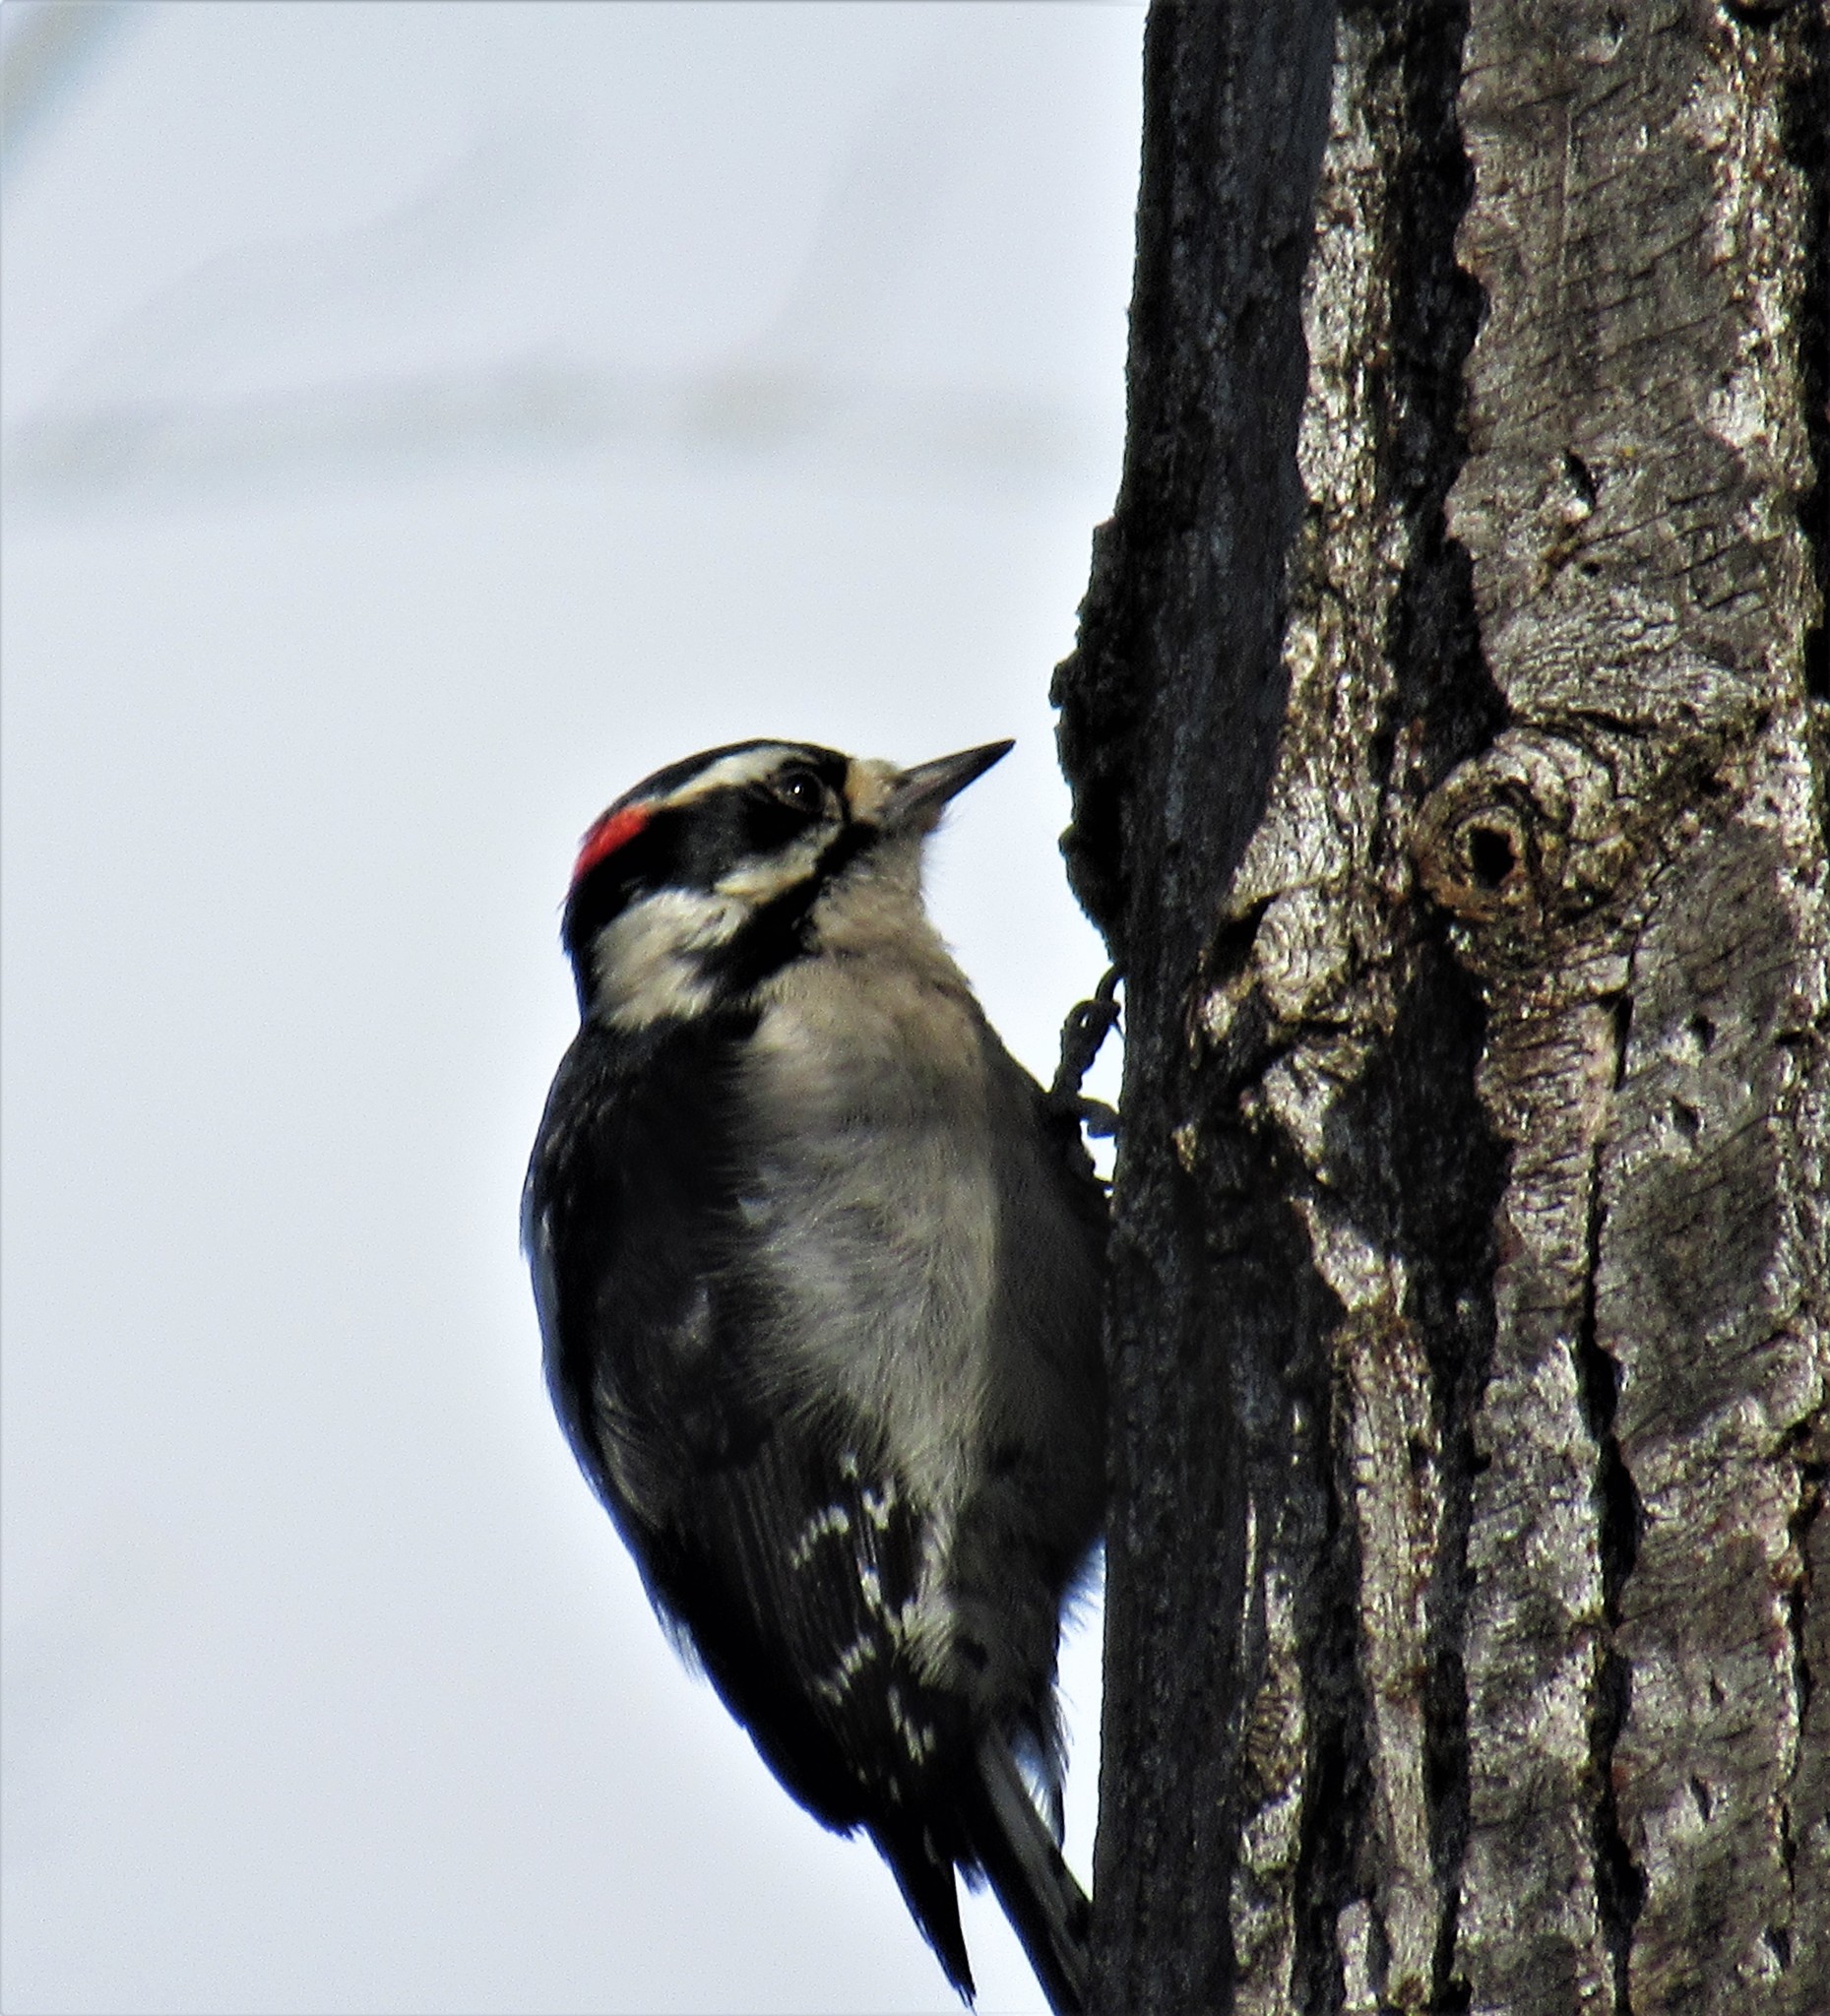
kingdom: Animalia
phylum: Chordata
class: Aves
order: Piciformes
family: Picidae
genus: Dryobates
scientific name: Dryobates pubescens
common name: Downy woodpecker
